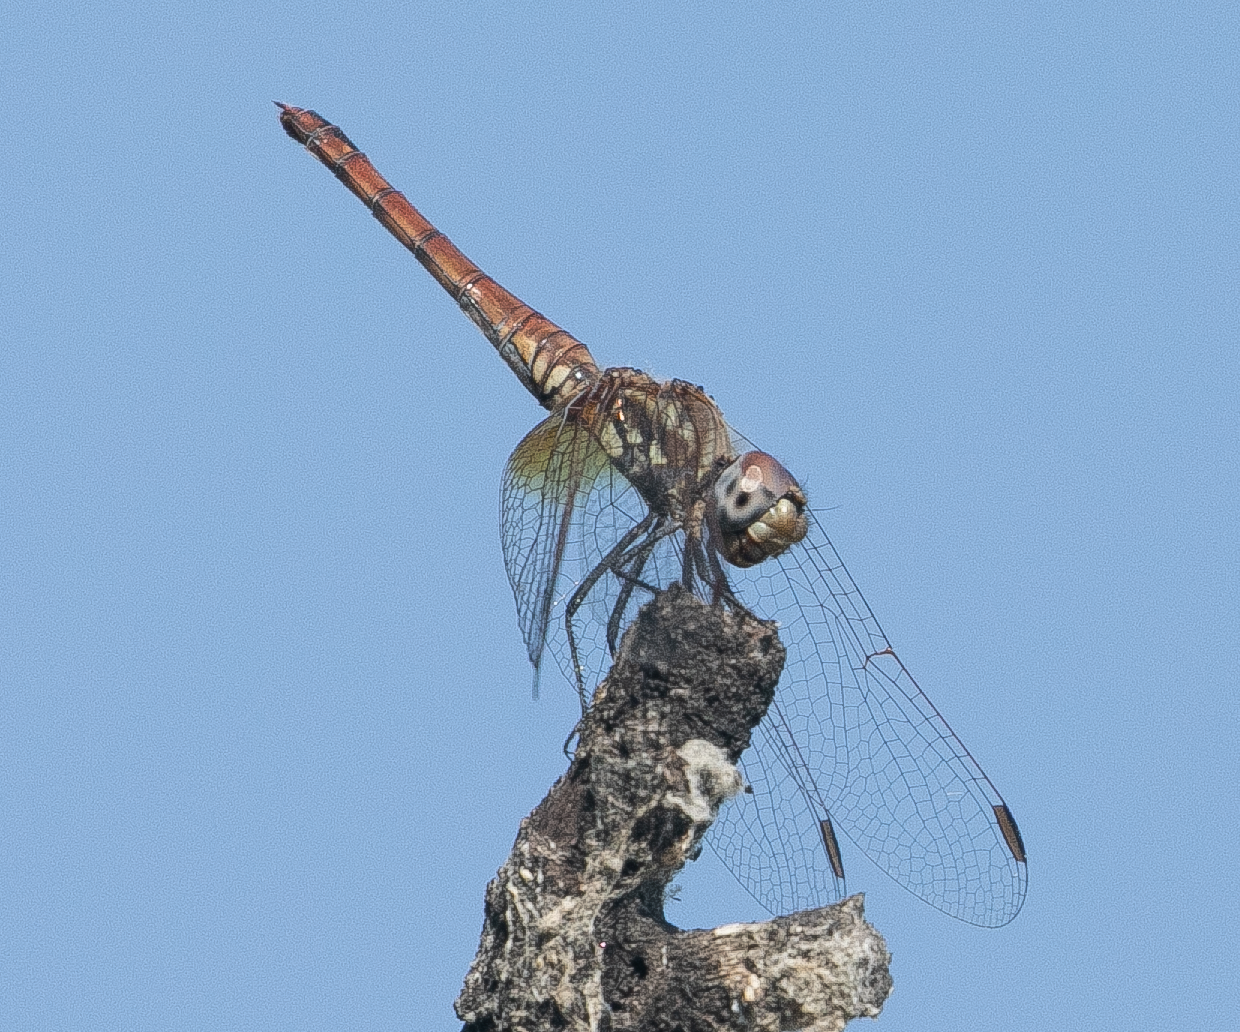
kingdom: Animalia
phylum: Arthropoda
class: Insecta
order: Odonata
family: Libellulidae
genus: Trithemis
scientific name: Trithemis annulata
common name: Violet dropwing
